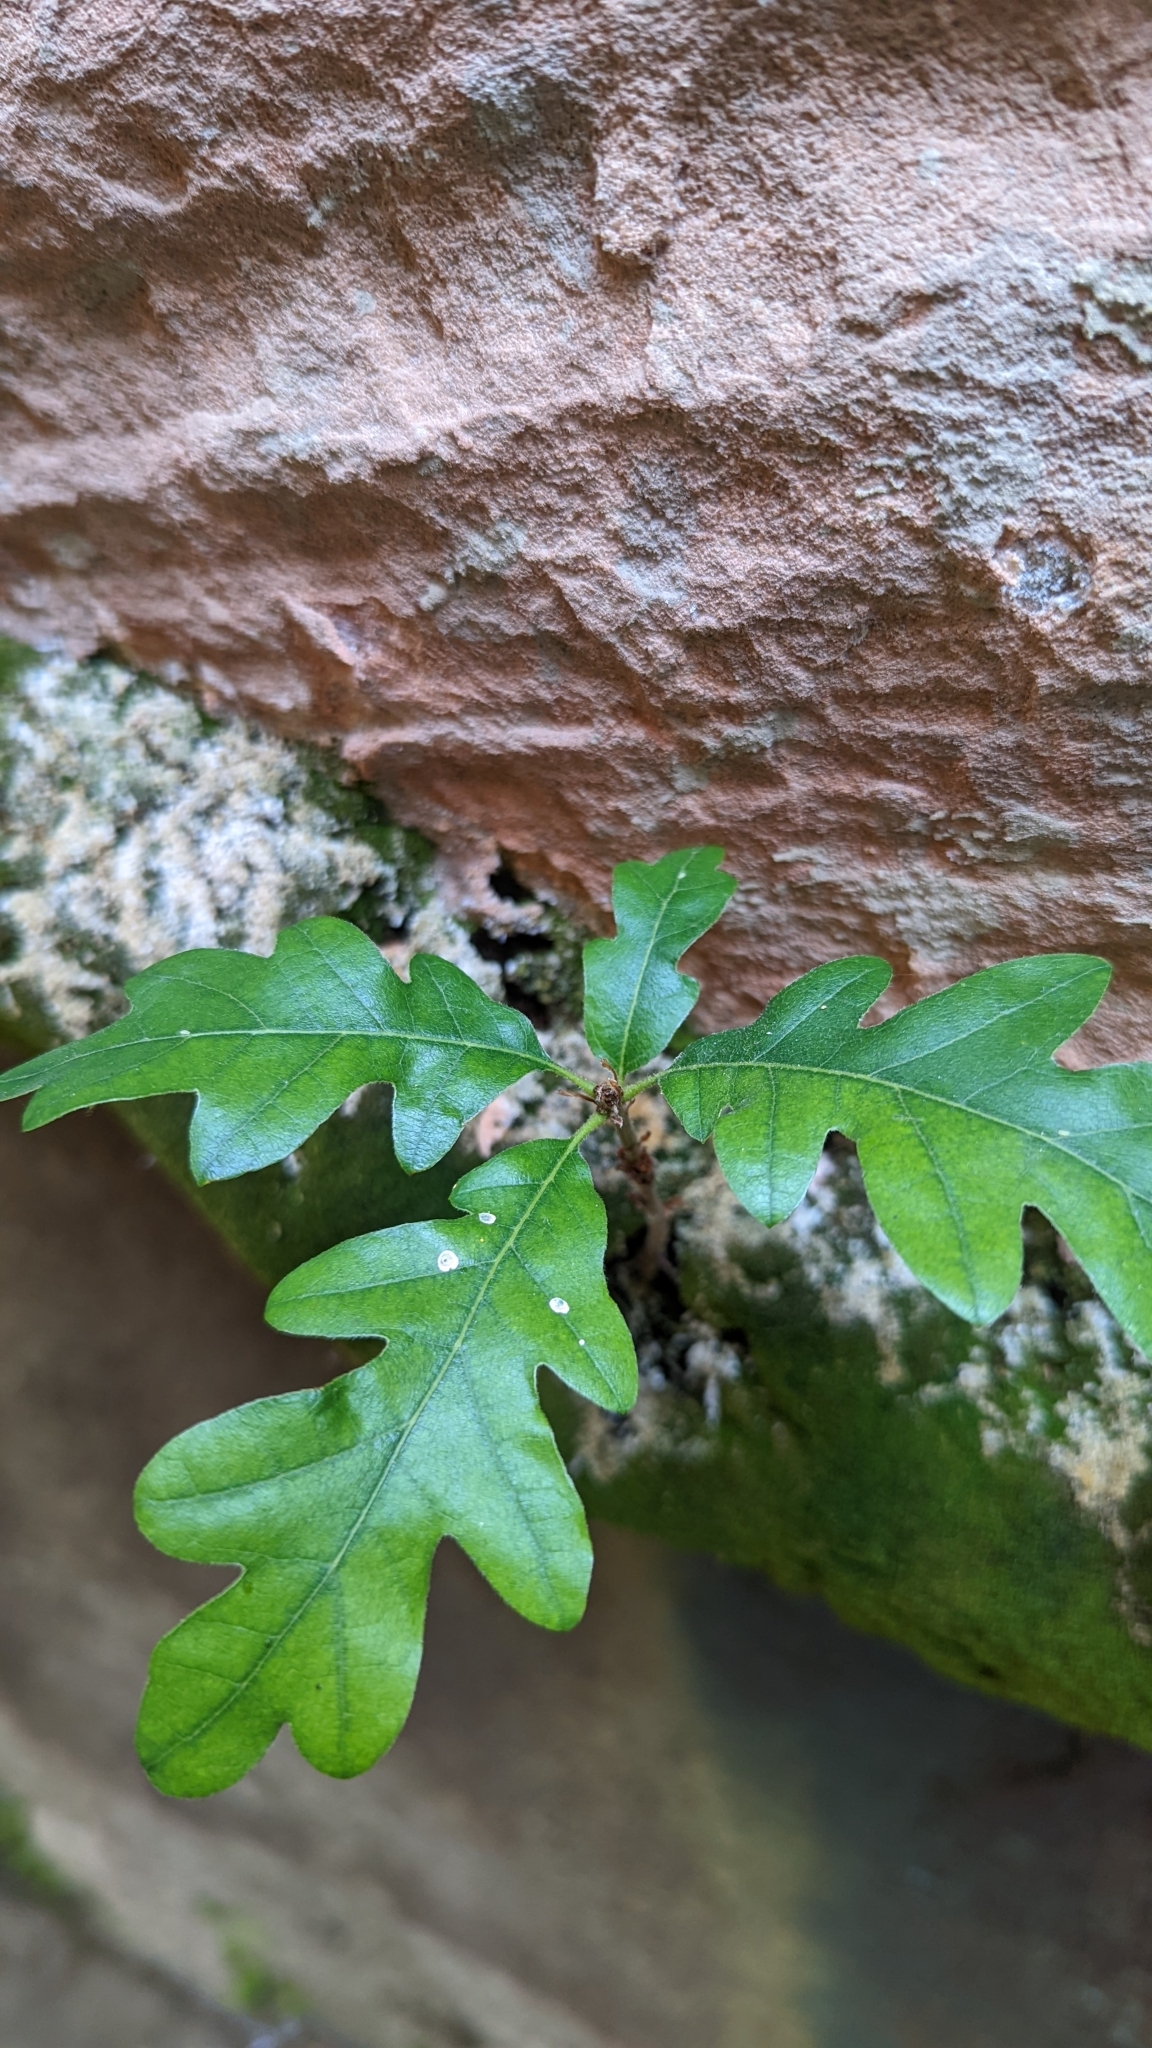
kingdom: Plantae
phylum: Tracheophyta
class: Magnoliopsida
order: Fagales
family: Fagaceae
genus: Quercus
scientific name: Quercus gambelii
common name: Gambel oak
